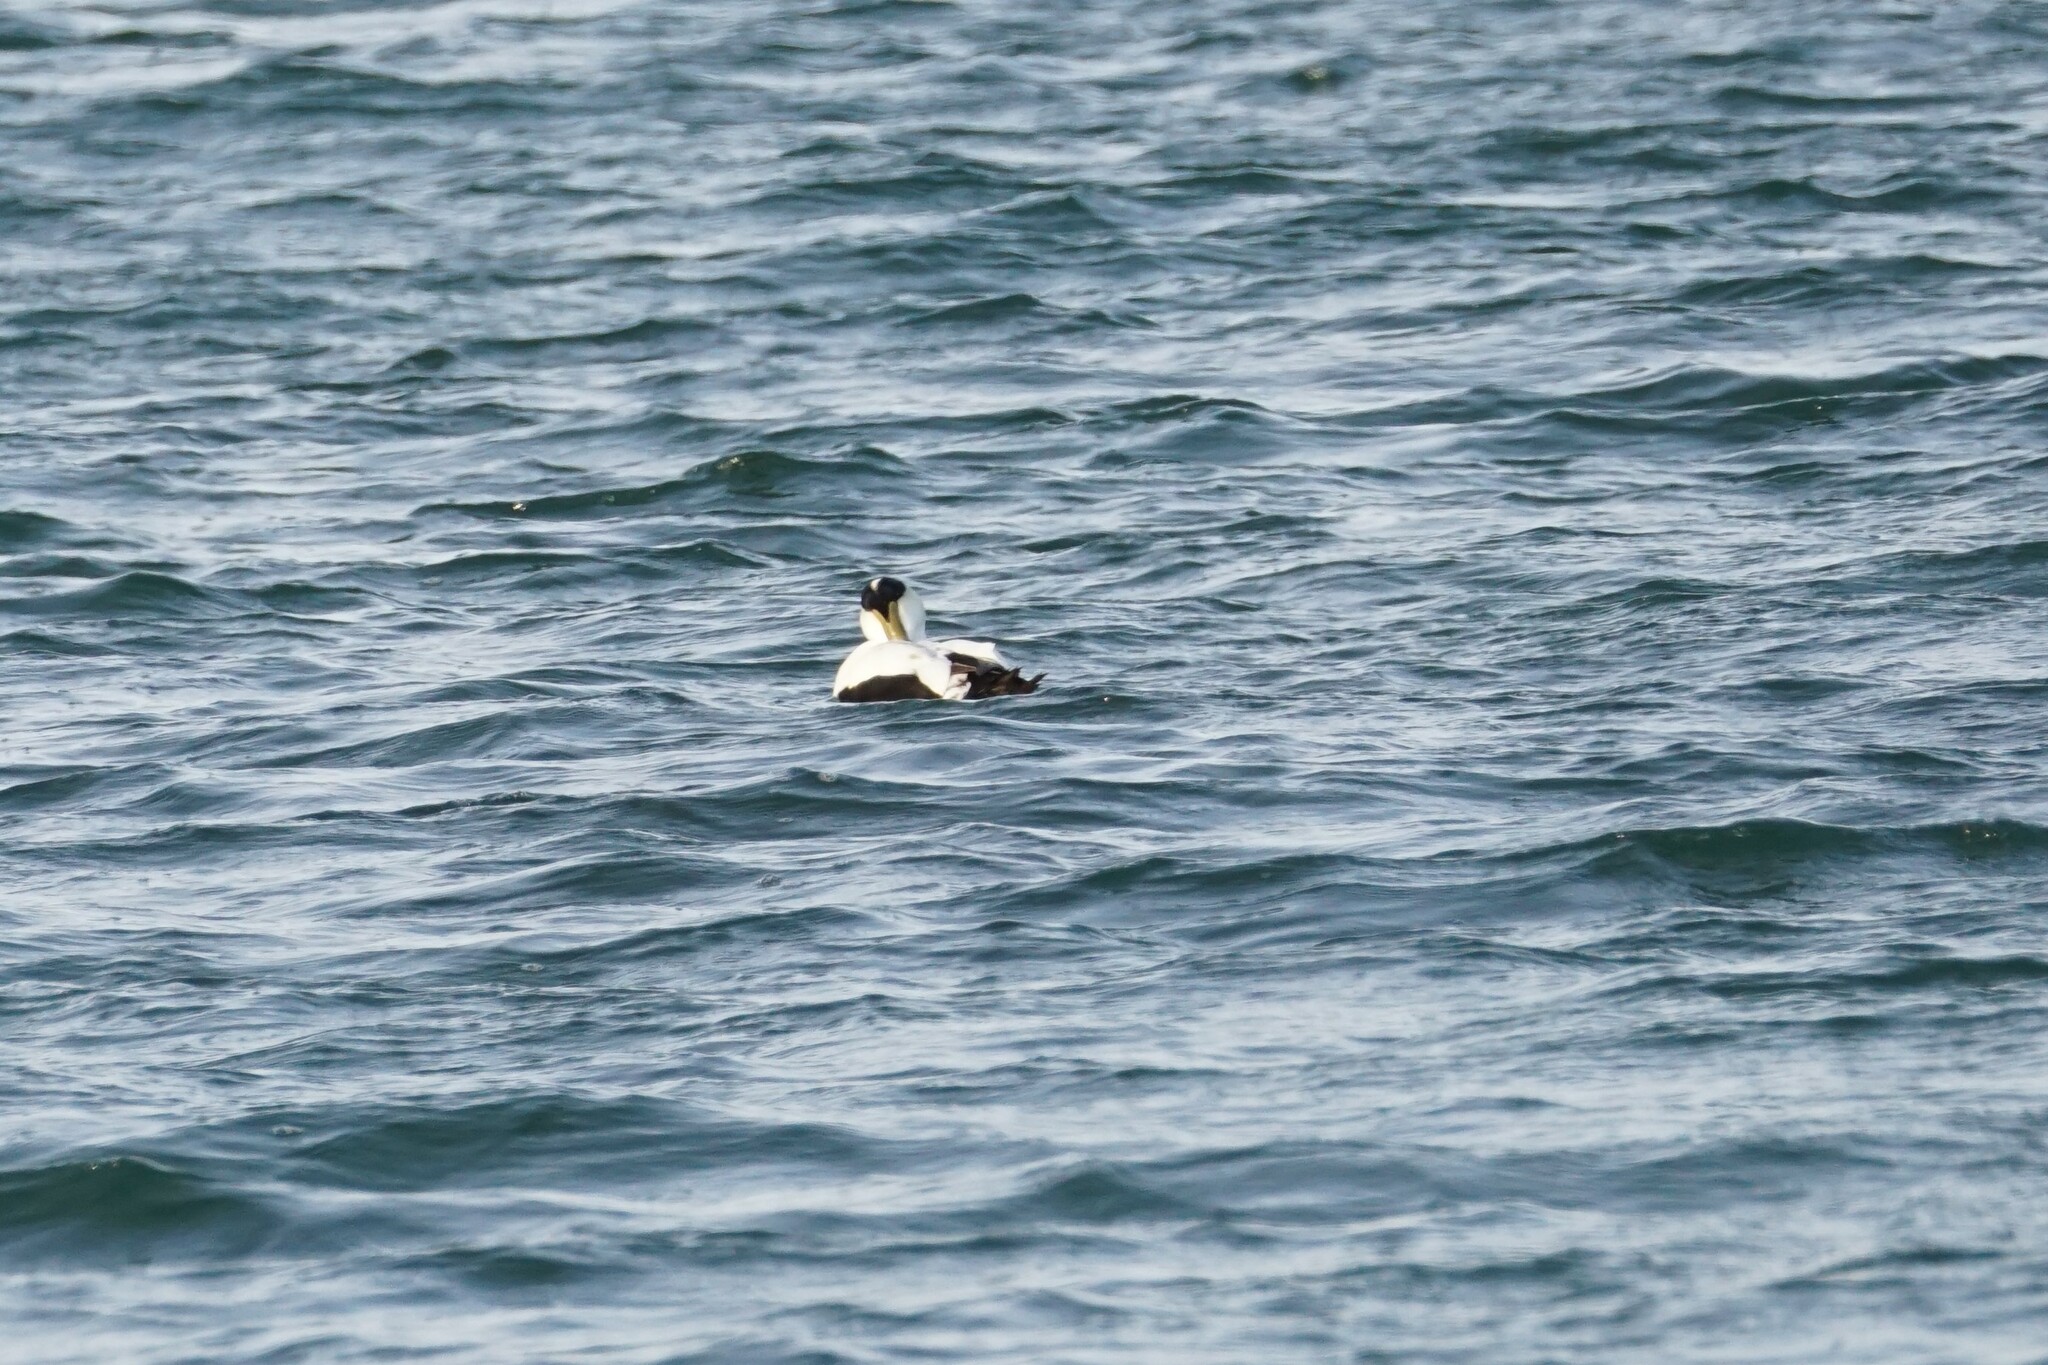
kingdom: Animalia
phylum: Chordata
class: Aves
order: Anseriformes
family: Anatidae
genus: Somateria
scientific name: Somateria mollissima
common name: Common eider
